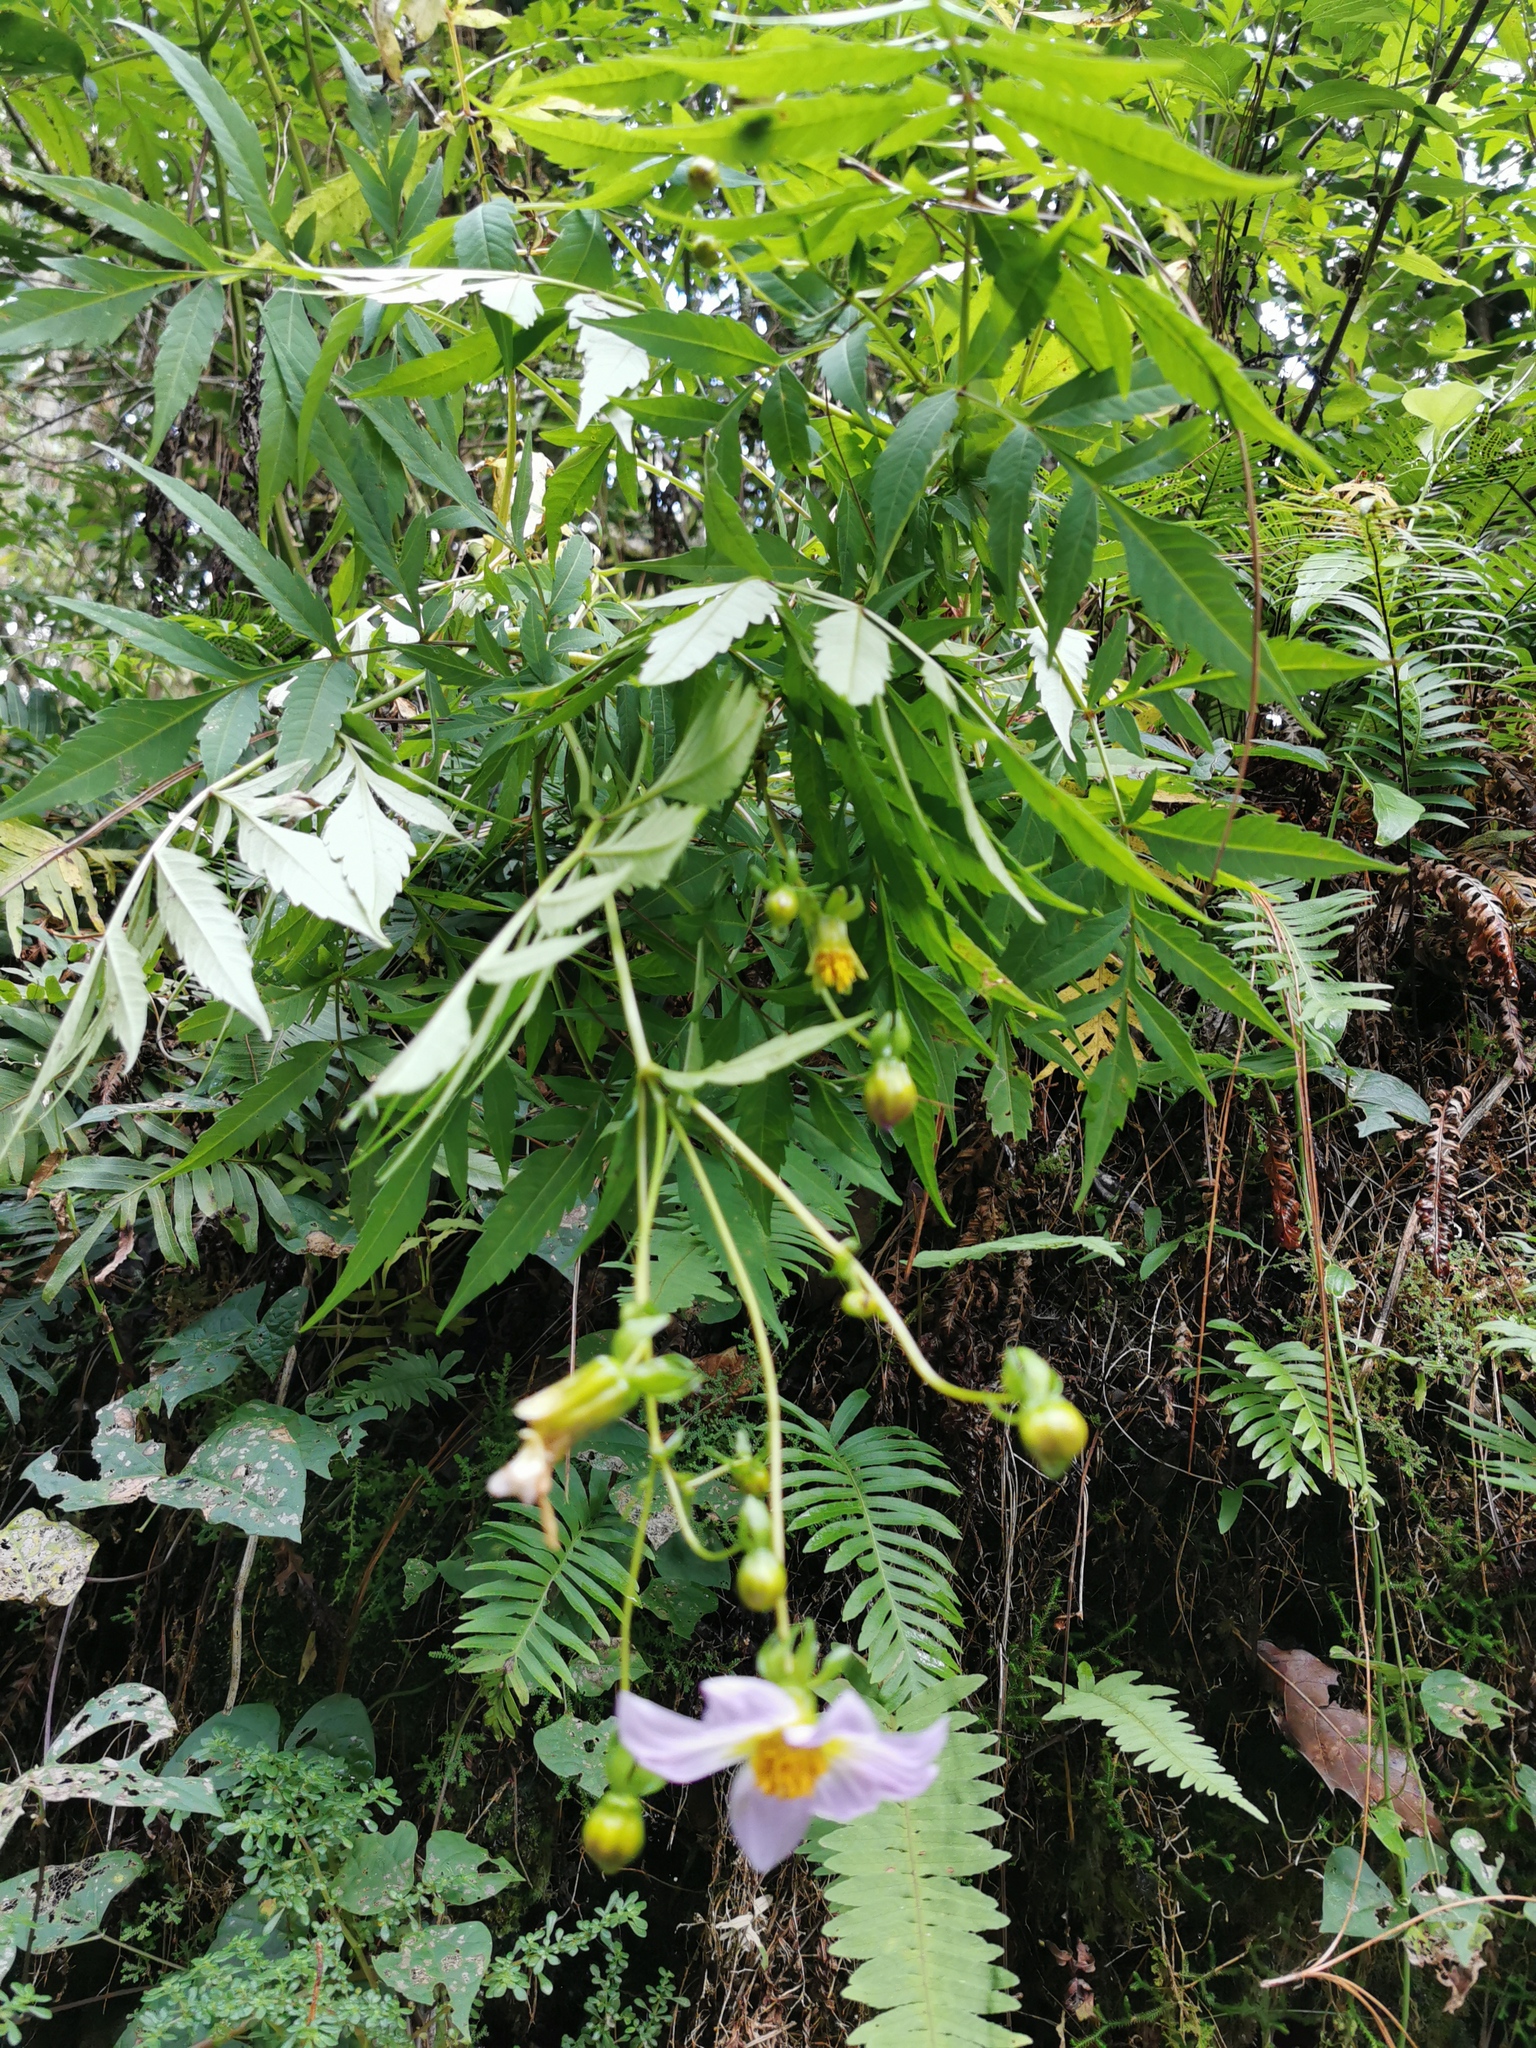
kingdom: Plantae
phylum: Tracheophyta
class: Magnoliopsida
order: Asterales
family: Asteraceae
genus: Dahlia
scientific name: Dahlia tamaulipana
